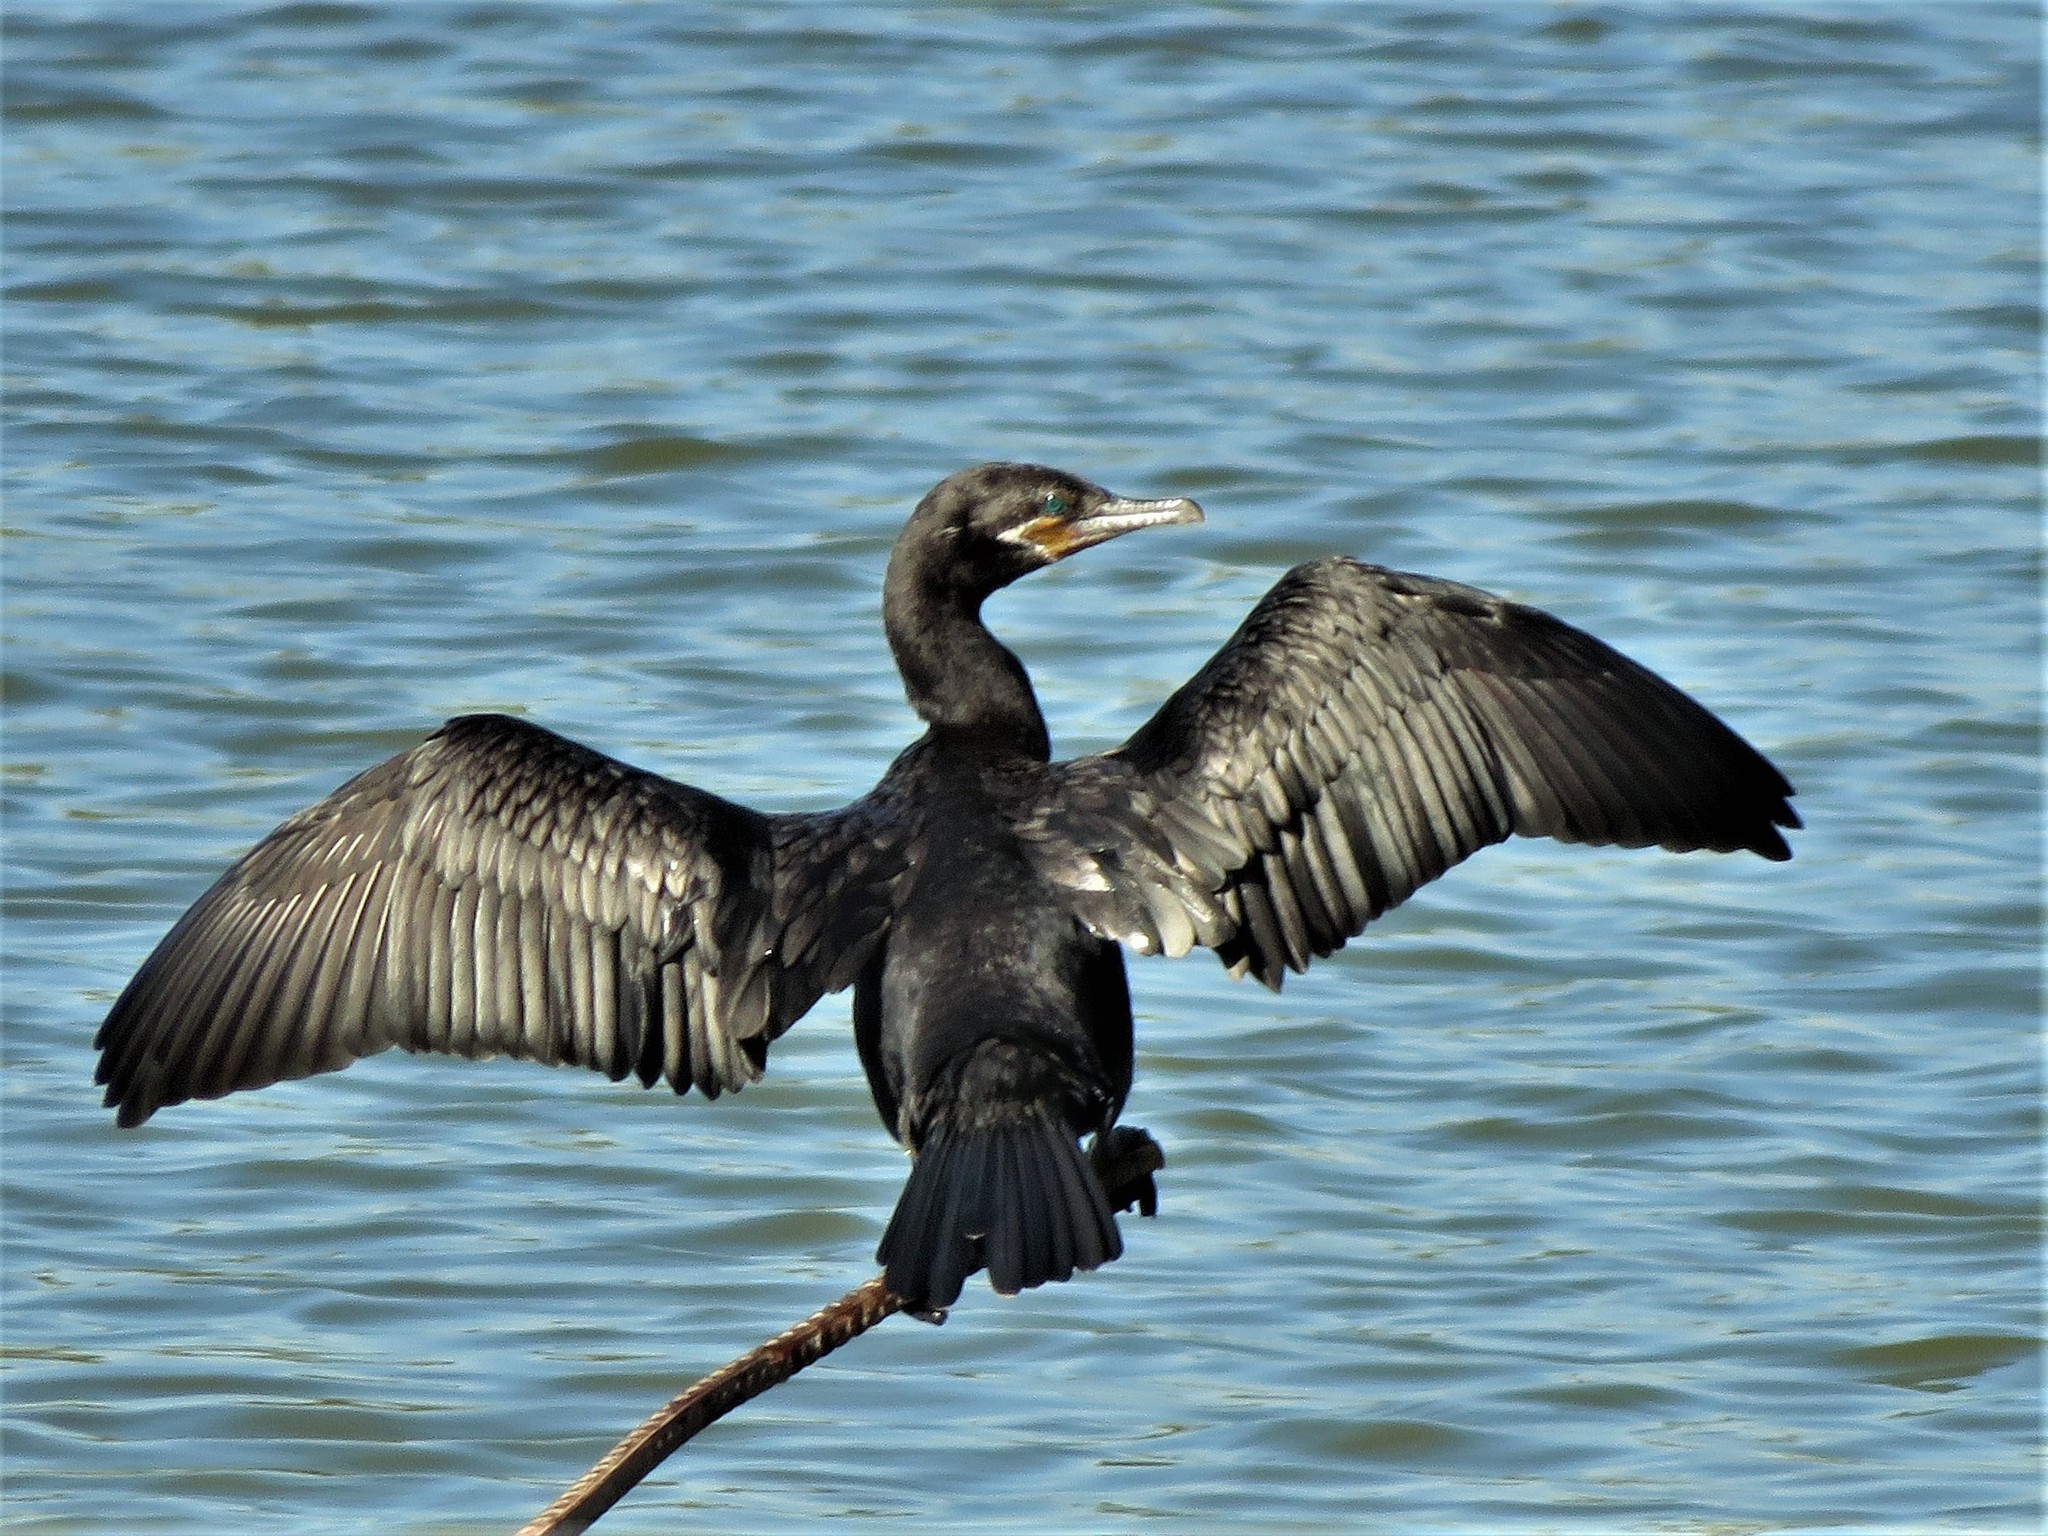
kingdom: Animalia
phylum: Chordata
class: Aves
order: Suliformes
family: Phalacrocoracidae
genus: Phalacrocorax
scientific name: Phalacrocorax brasilianus
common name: Neotropic cormorant
